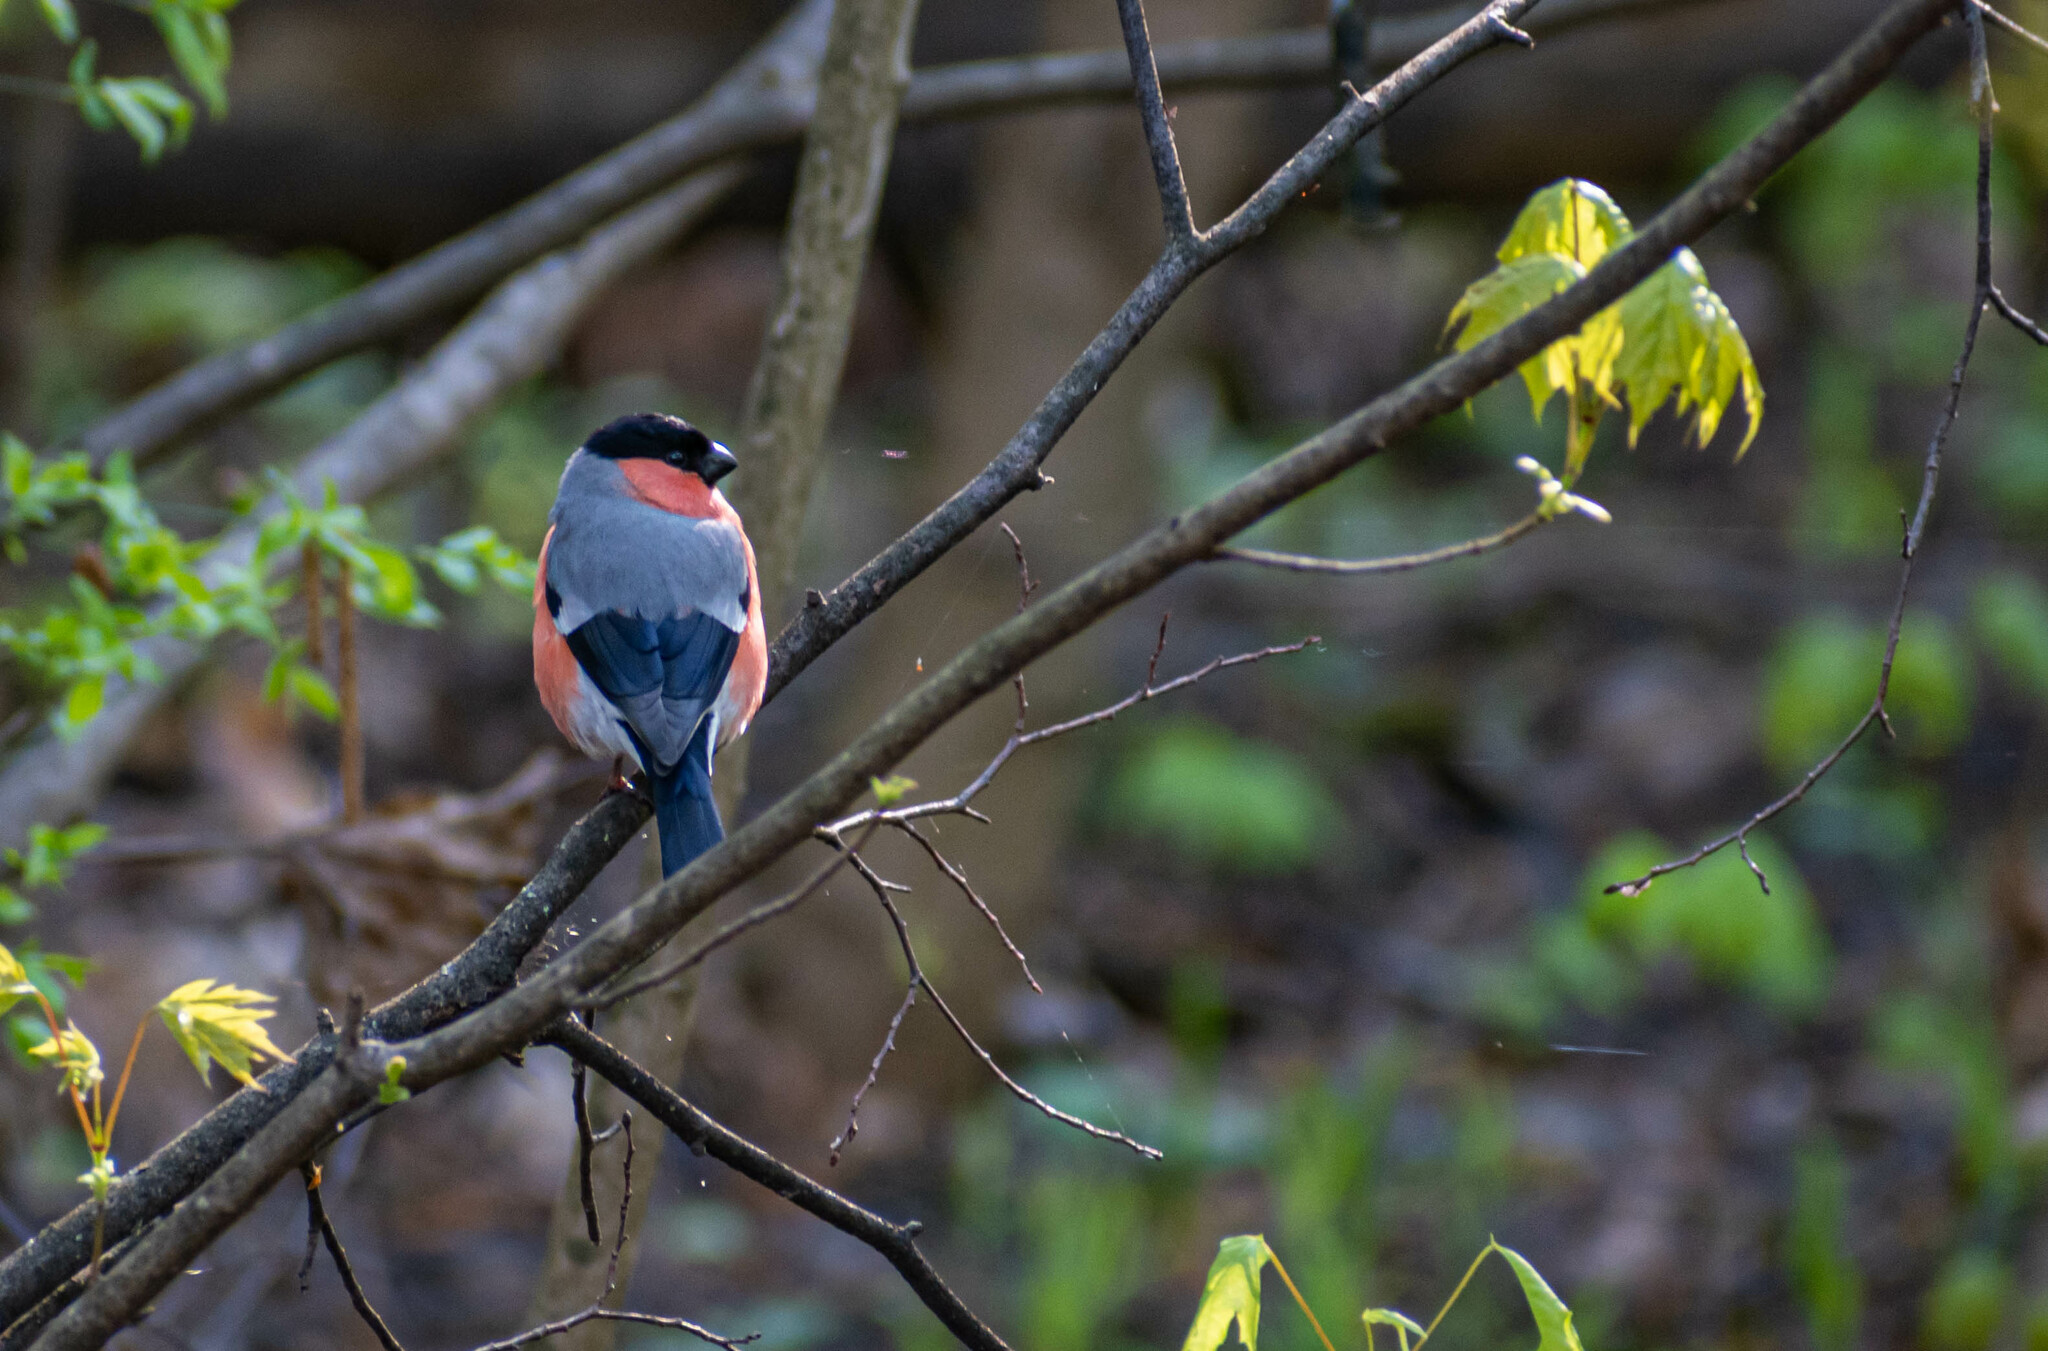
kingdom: Animalia
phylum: Chordata
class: Aves
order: Passeriformes
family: Fringillidae
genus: Pyrrhula
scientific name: Pyrrhula pyrrhula
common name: Eurasian bullfinch
